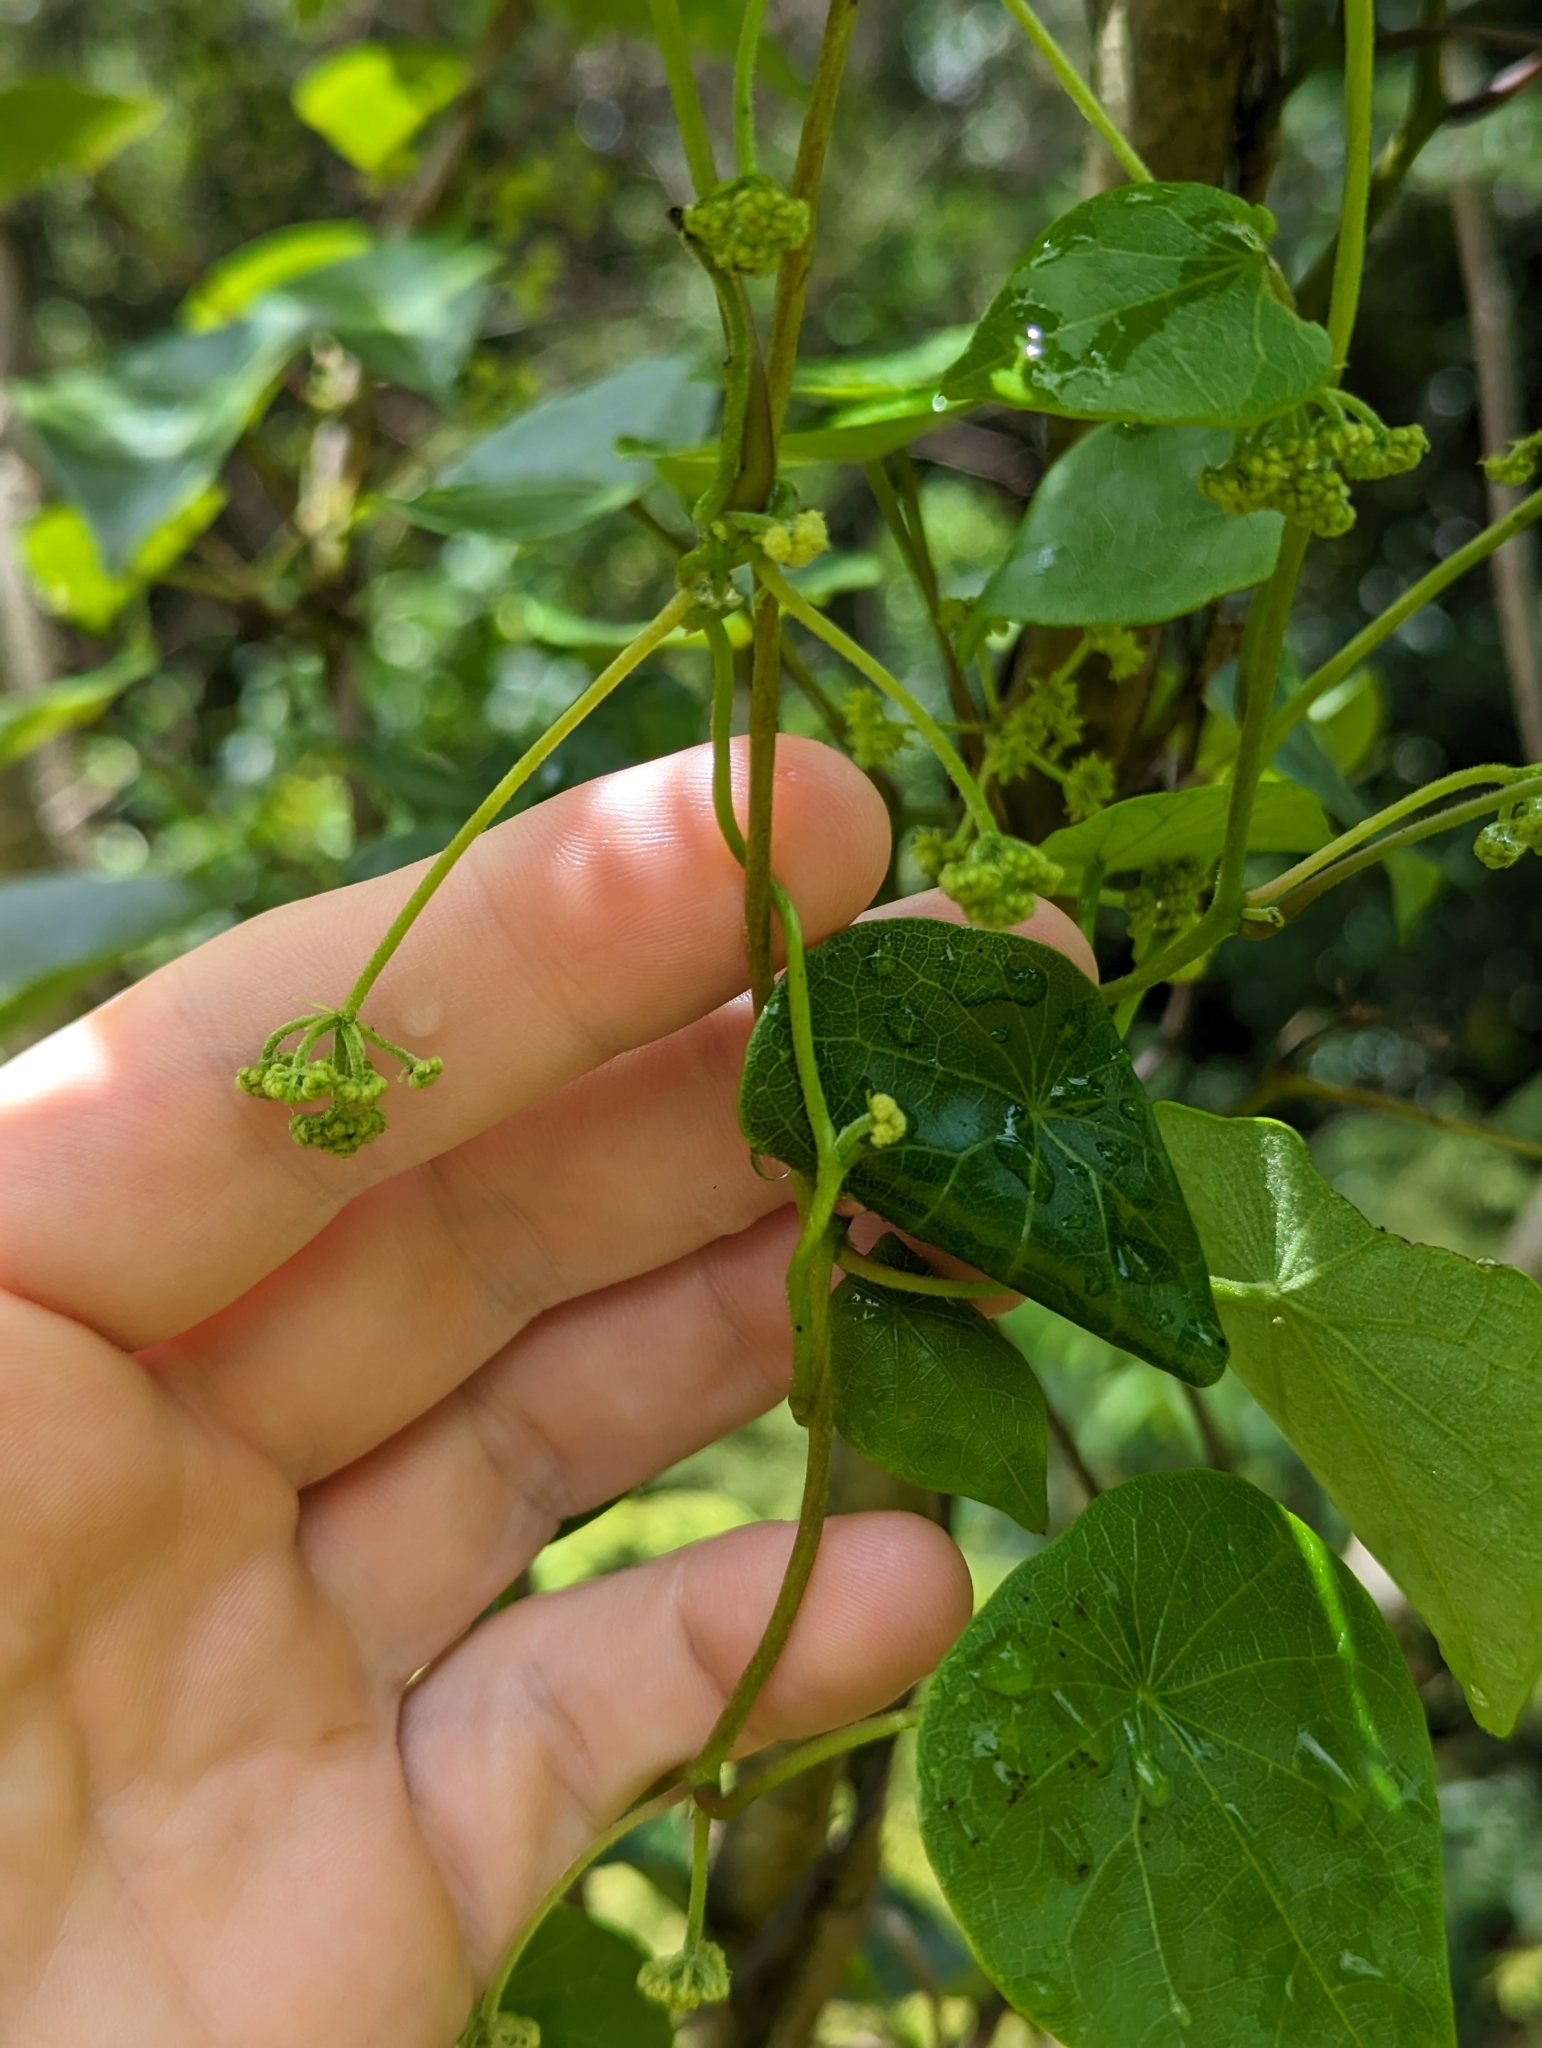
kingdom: Plantae
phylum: Tracheophyta
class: Magnoliopsida
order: Ranunculales
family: Menispermaceae
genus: Stephania
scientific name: Stephania japonica
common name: Snake vine
